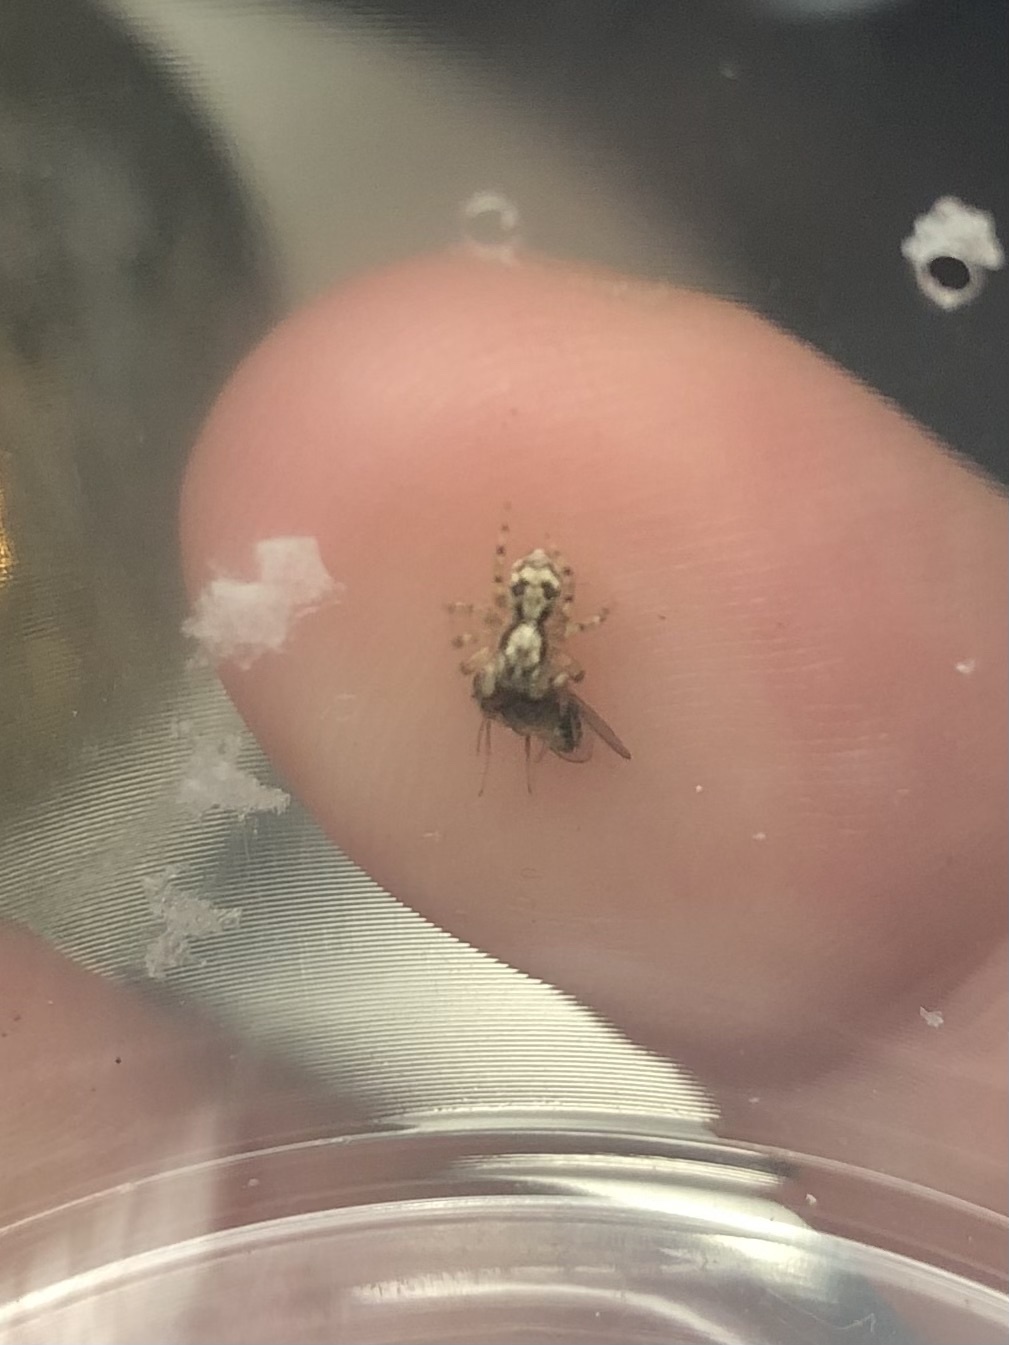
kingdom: Animalia
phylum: Arthropoda
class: Arachnida
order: Araneae
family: Salticidae
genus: Naphrys
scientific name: Naphrys pulex
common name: Flea jumping spider
